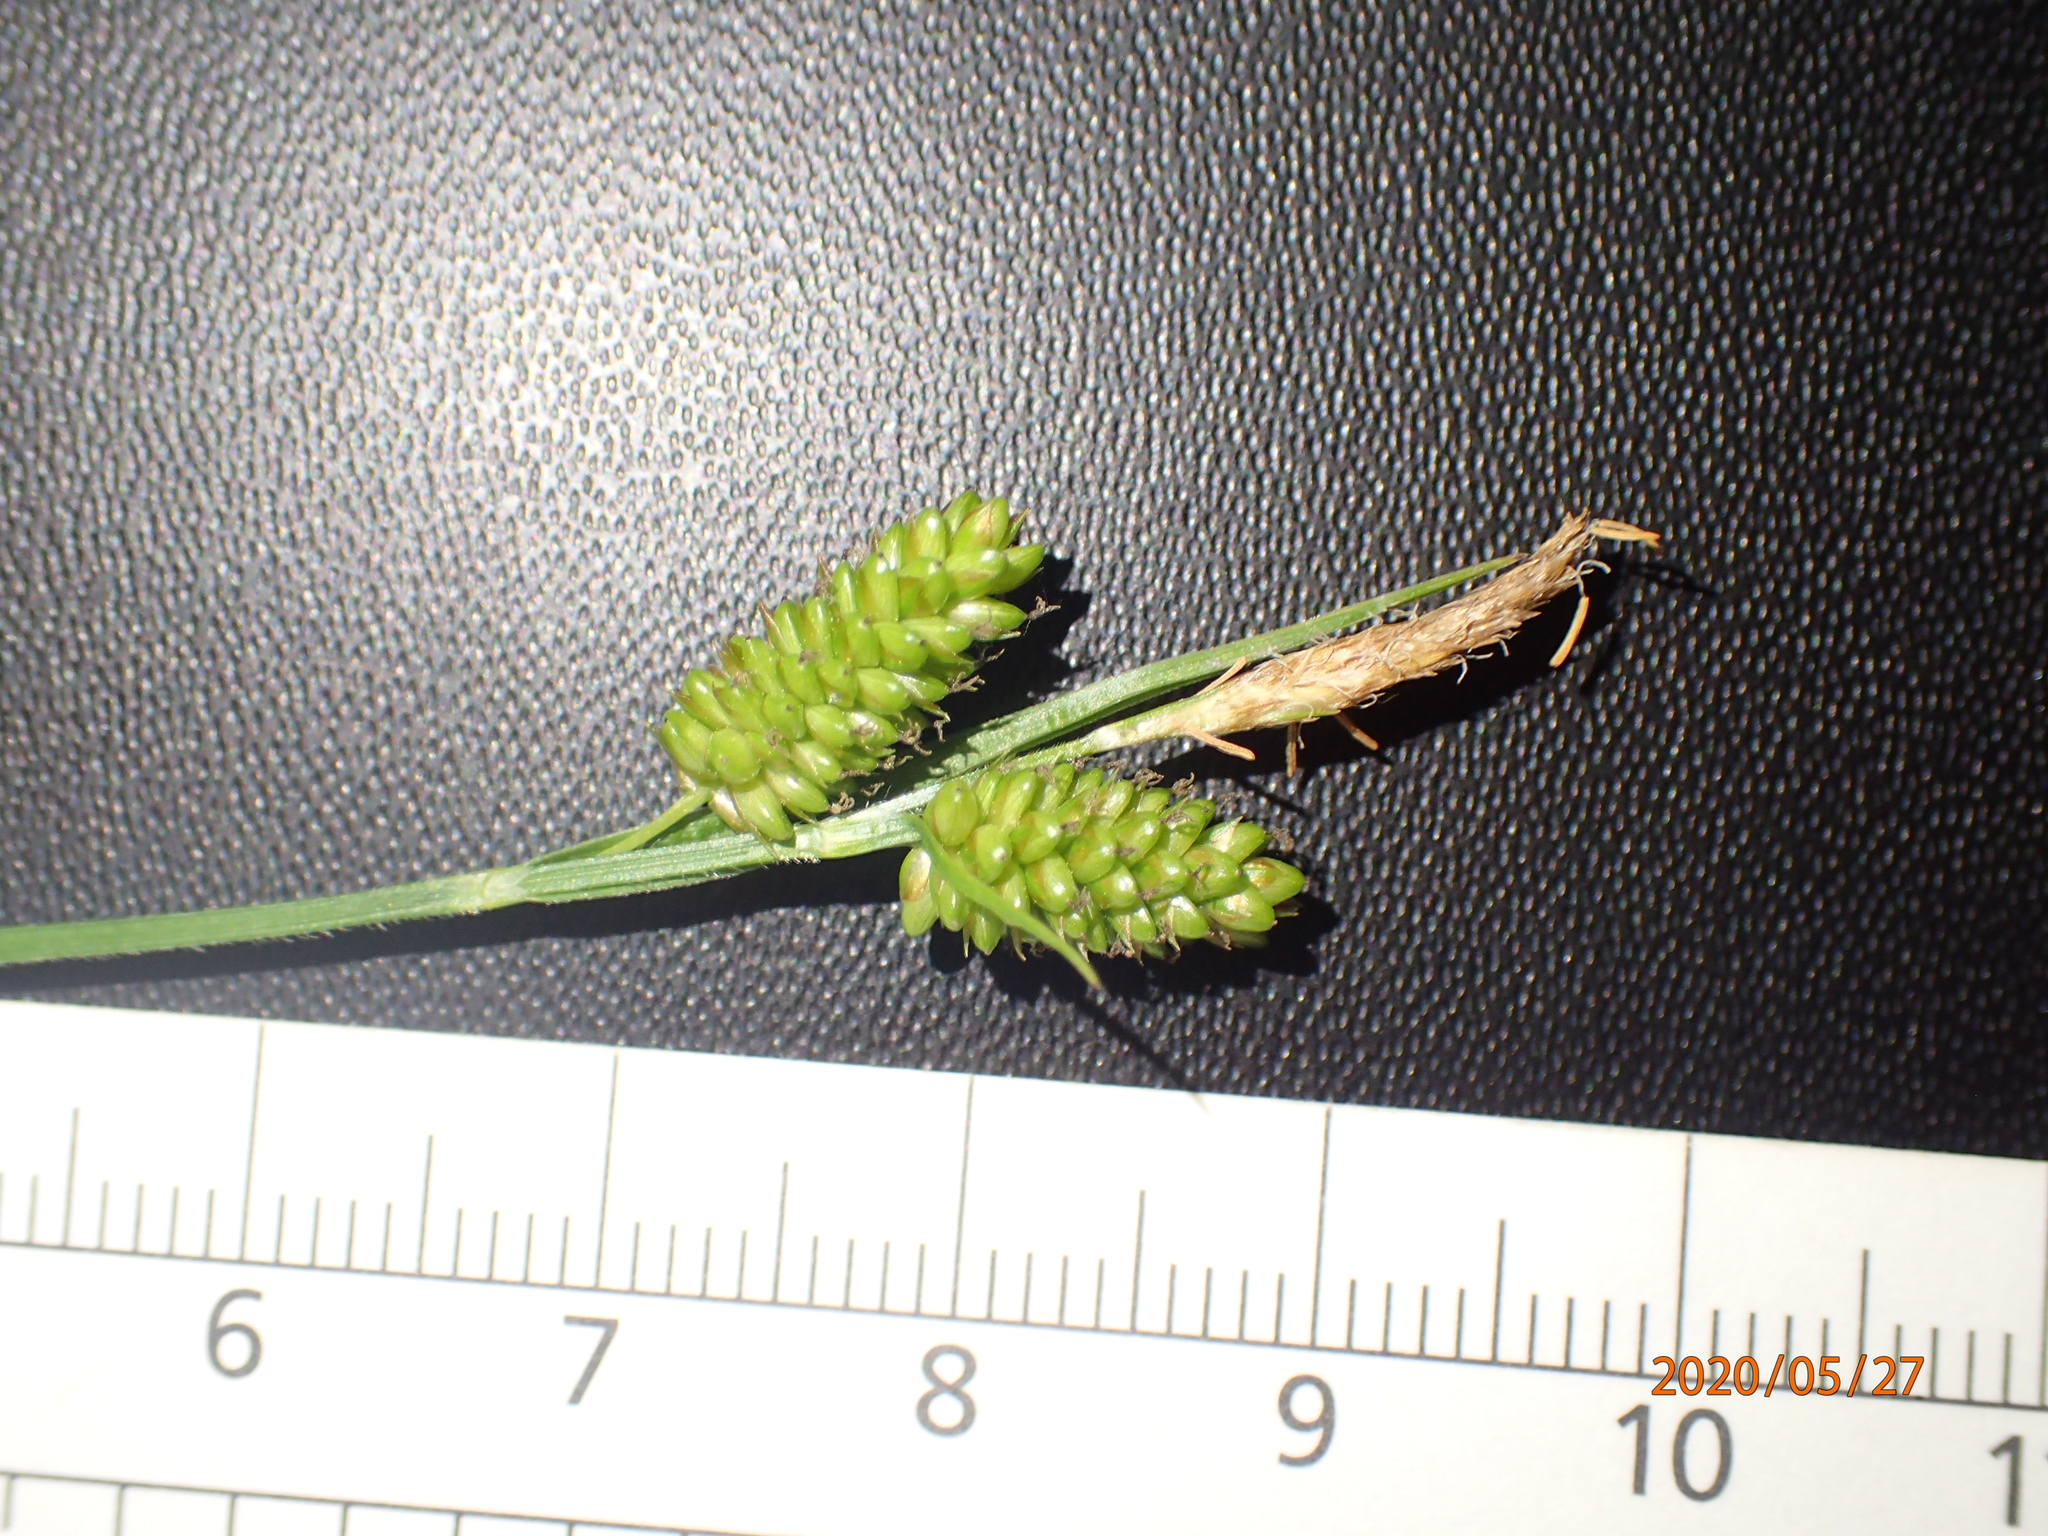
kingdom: Plantae
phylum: Tracheophyta
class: Liliopsida
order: Poales
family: Cyperaceae
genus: Carex
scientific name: Carex pallescens
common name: Pale sedge
